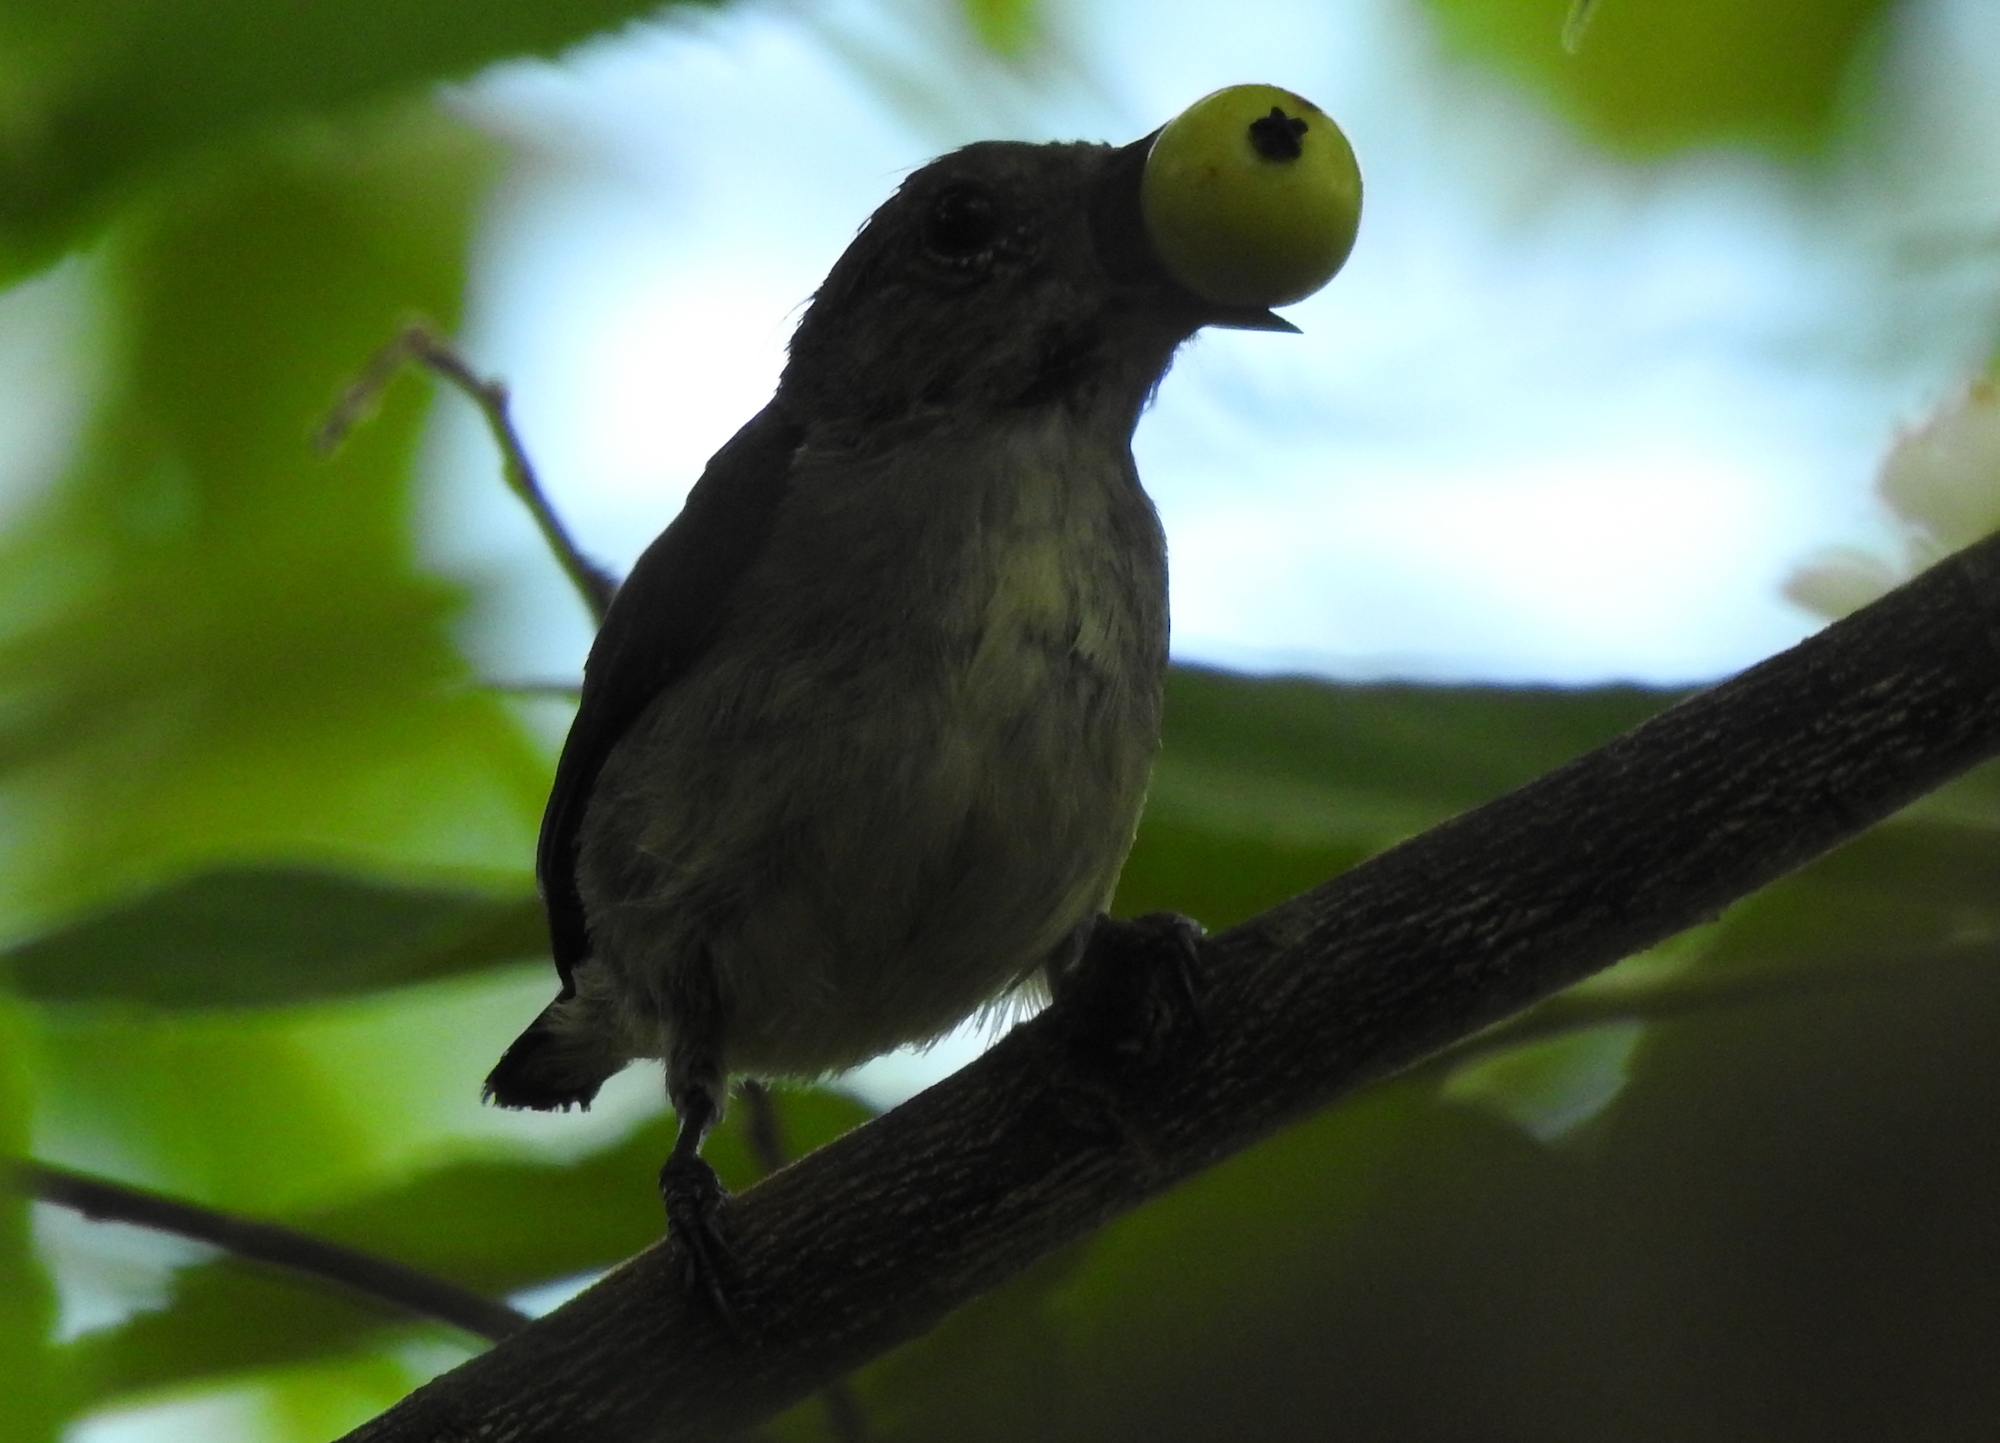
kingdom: Animalia
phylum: Chordata
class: Aves
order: Passeriformes
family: Dicaeidae
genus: Dicaeum
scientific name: Dicaeum cruentatum
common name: Scarlet-backed flowerpecker
